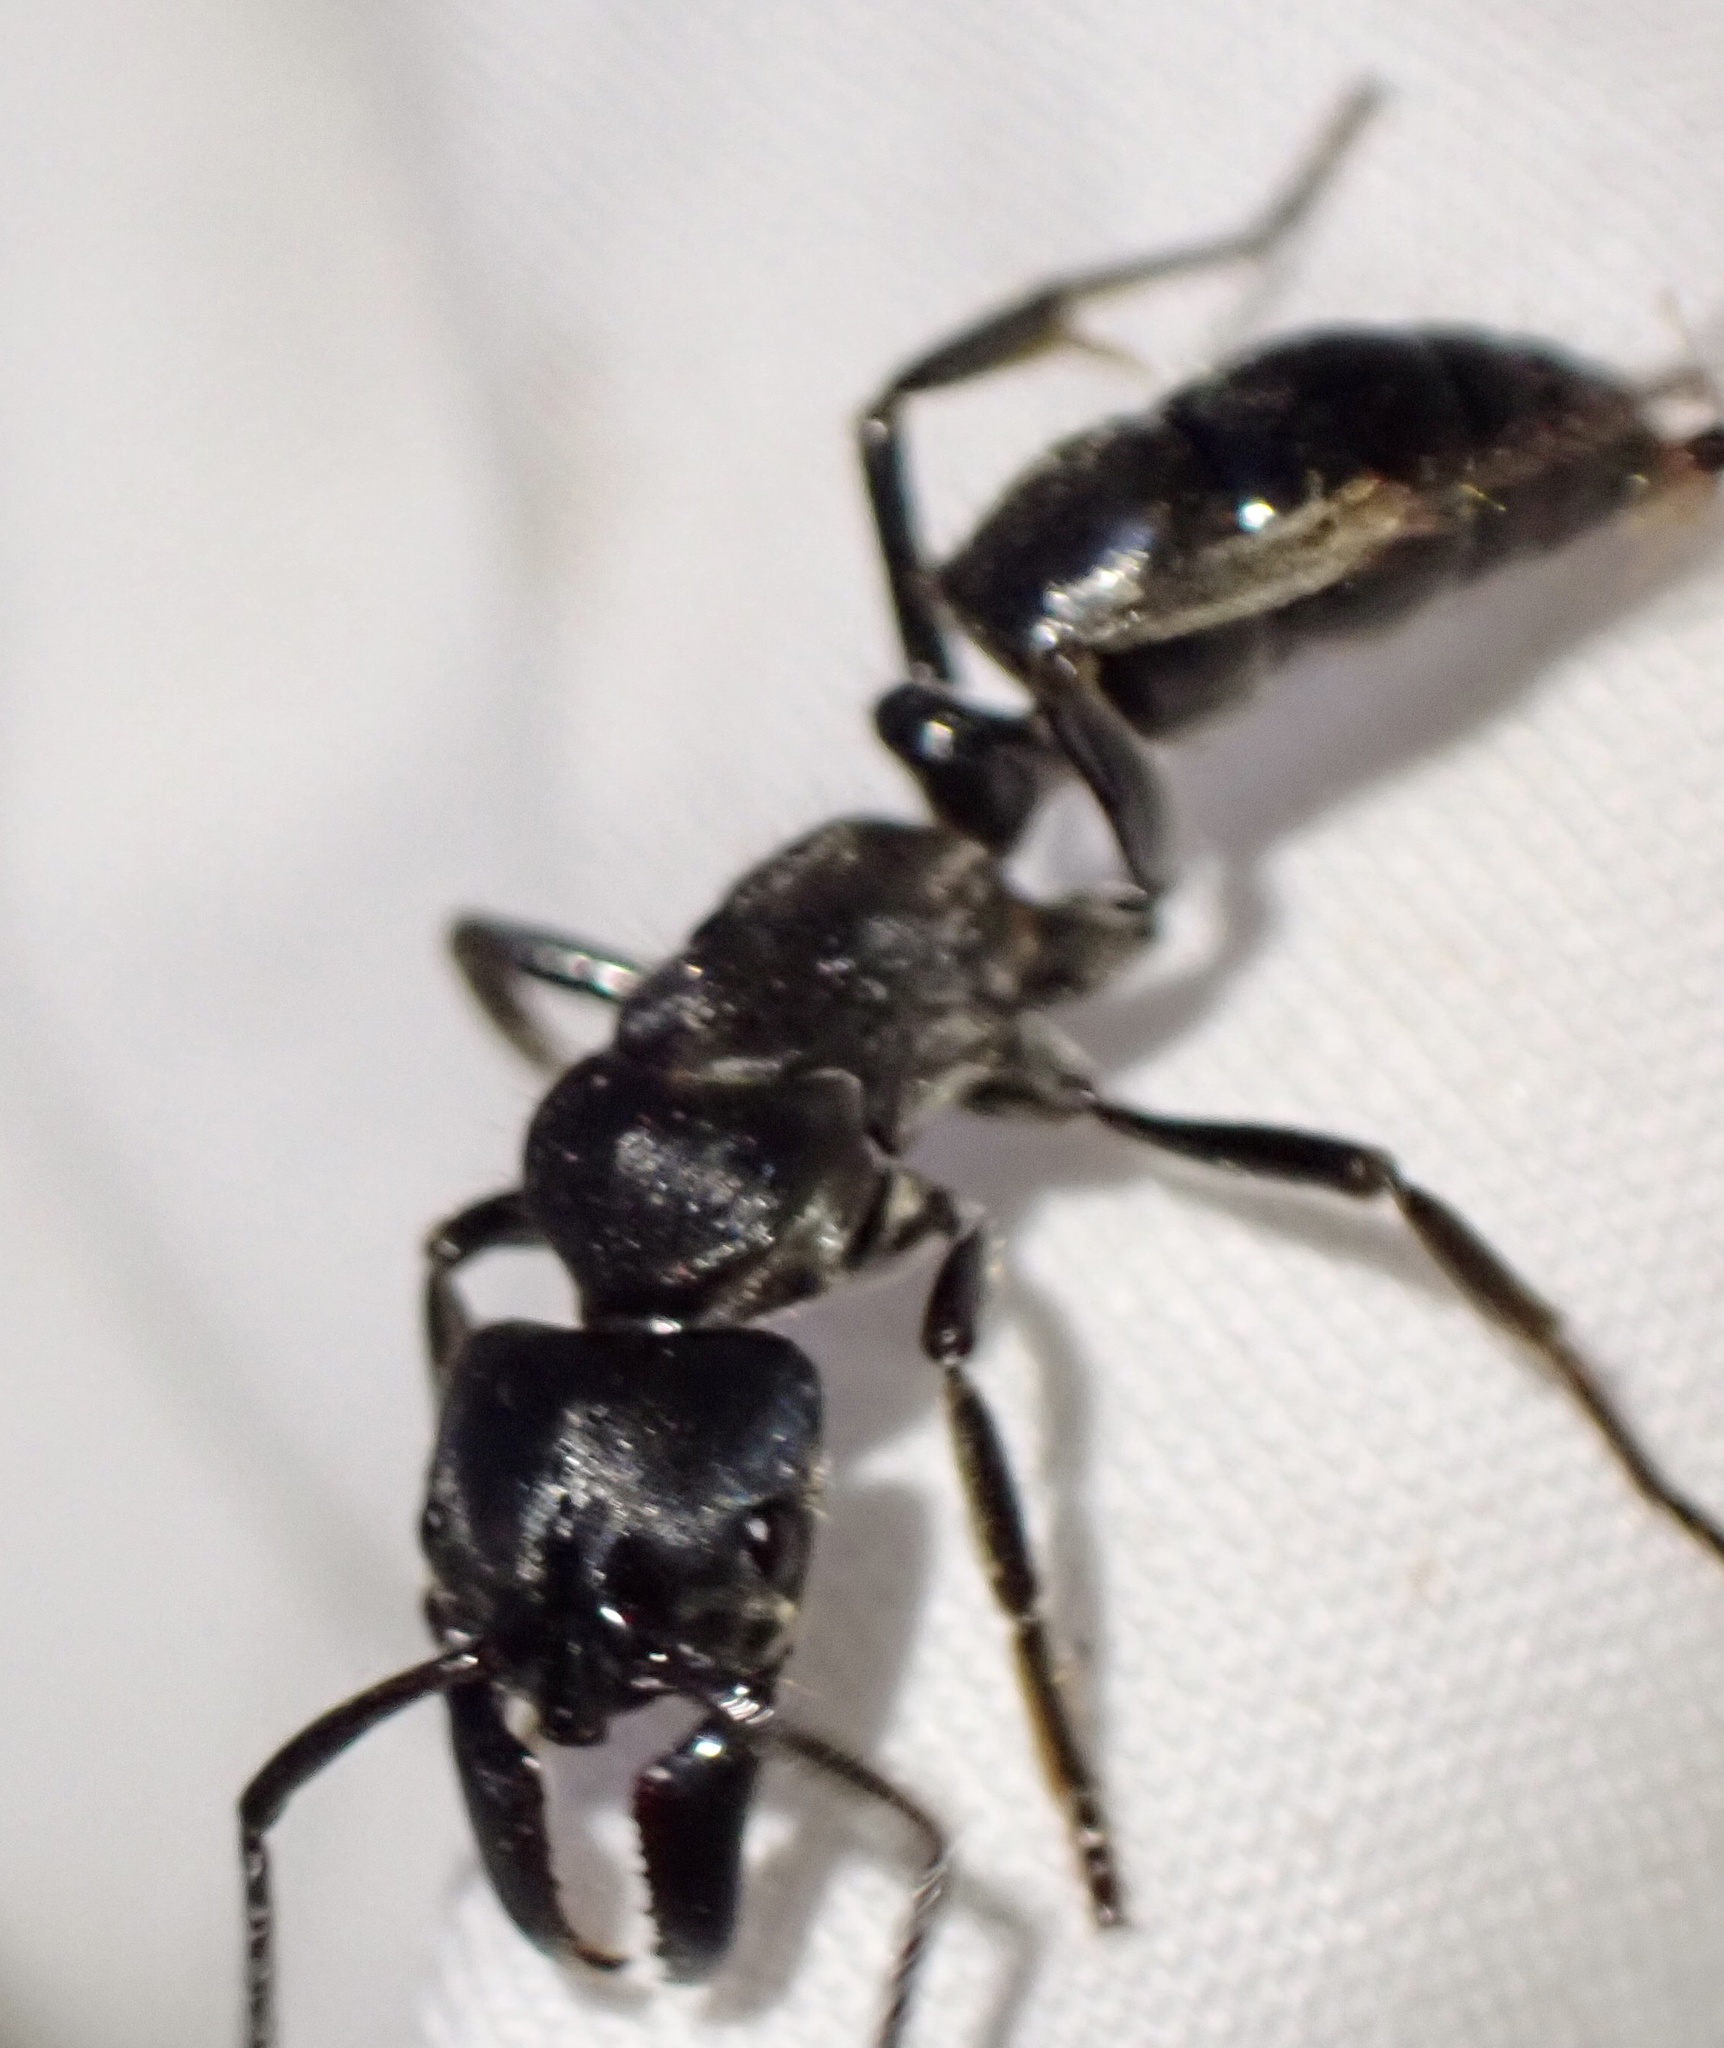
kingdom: Animalia
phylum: Arthropoda
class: Insecta
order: Hymenoptera
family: Formicidae
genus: Paltothyreus
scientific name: Paltothyreus tarsatus
